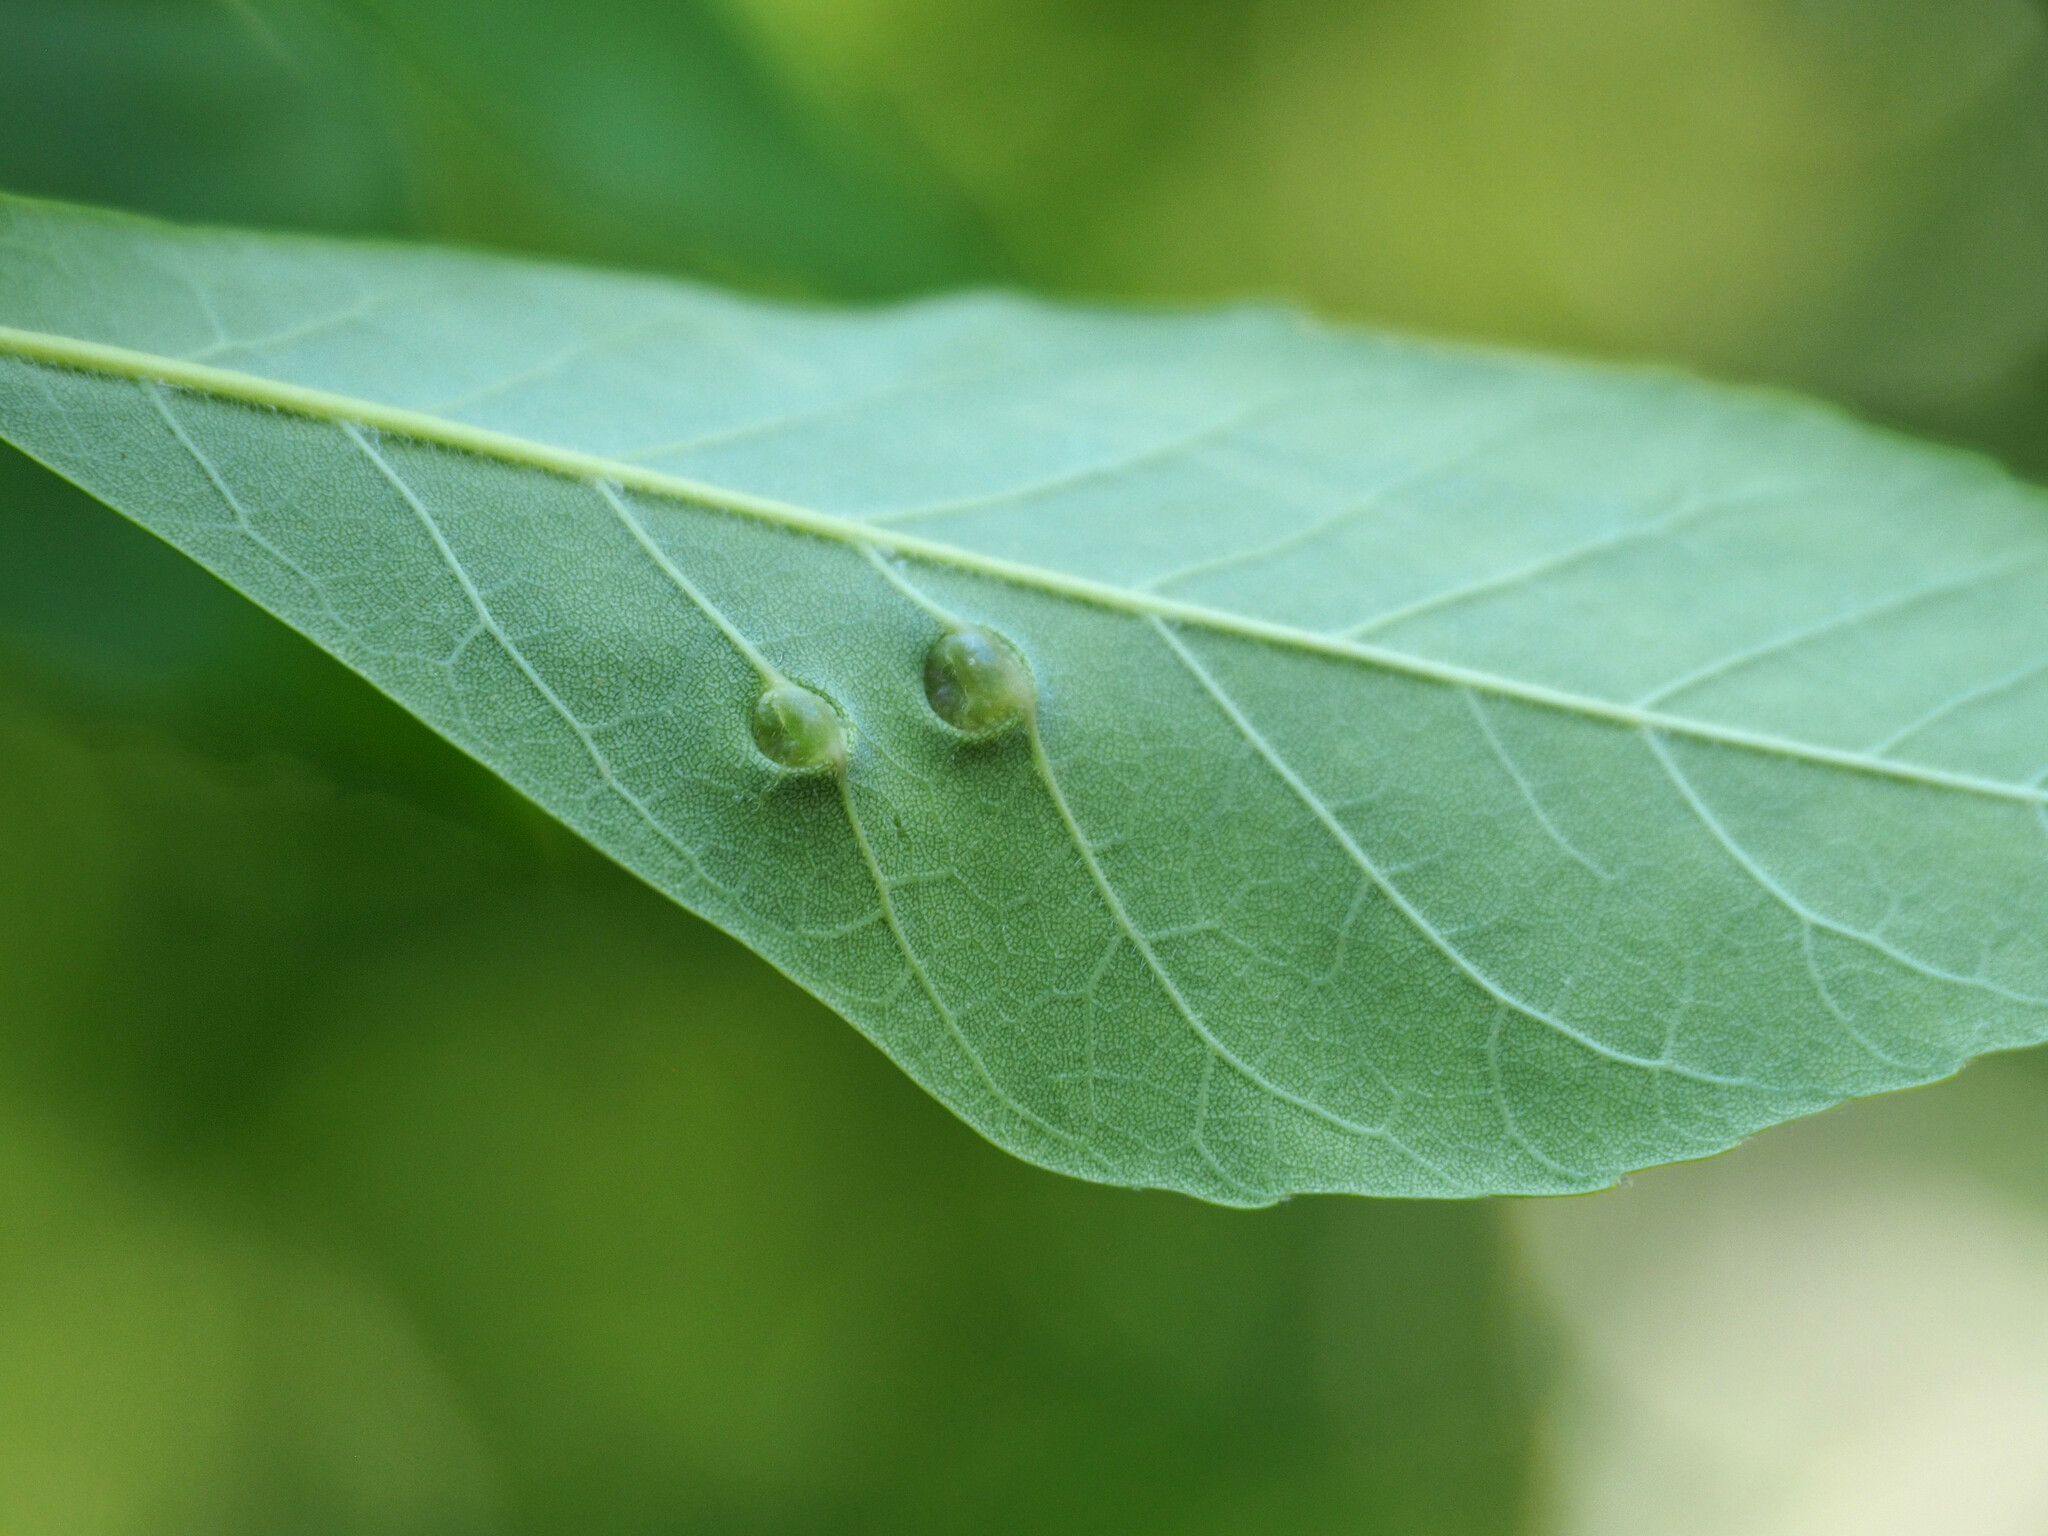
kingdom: Animalia
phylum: Arthropoda
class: Insecta
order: Diptera
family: Cecidomyiidae
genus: Dasineura
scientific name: Dasineura pellex
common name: Ash bullet gall midge
